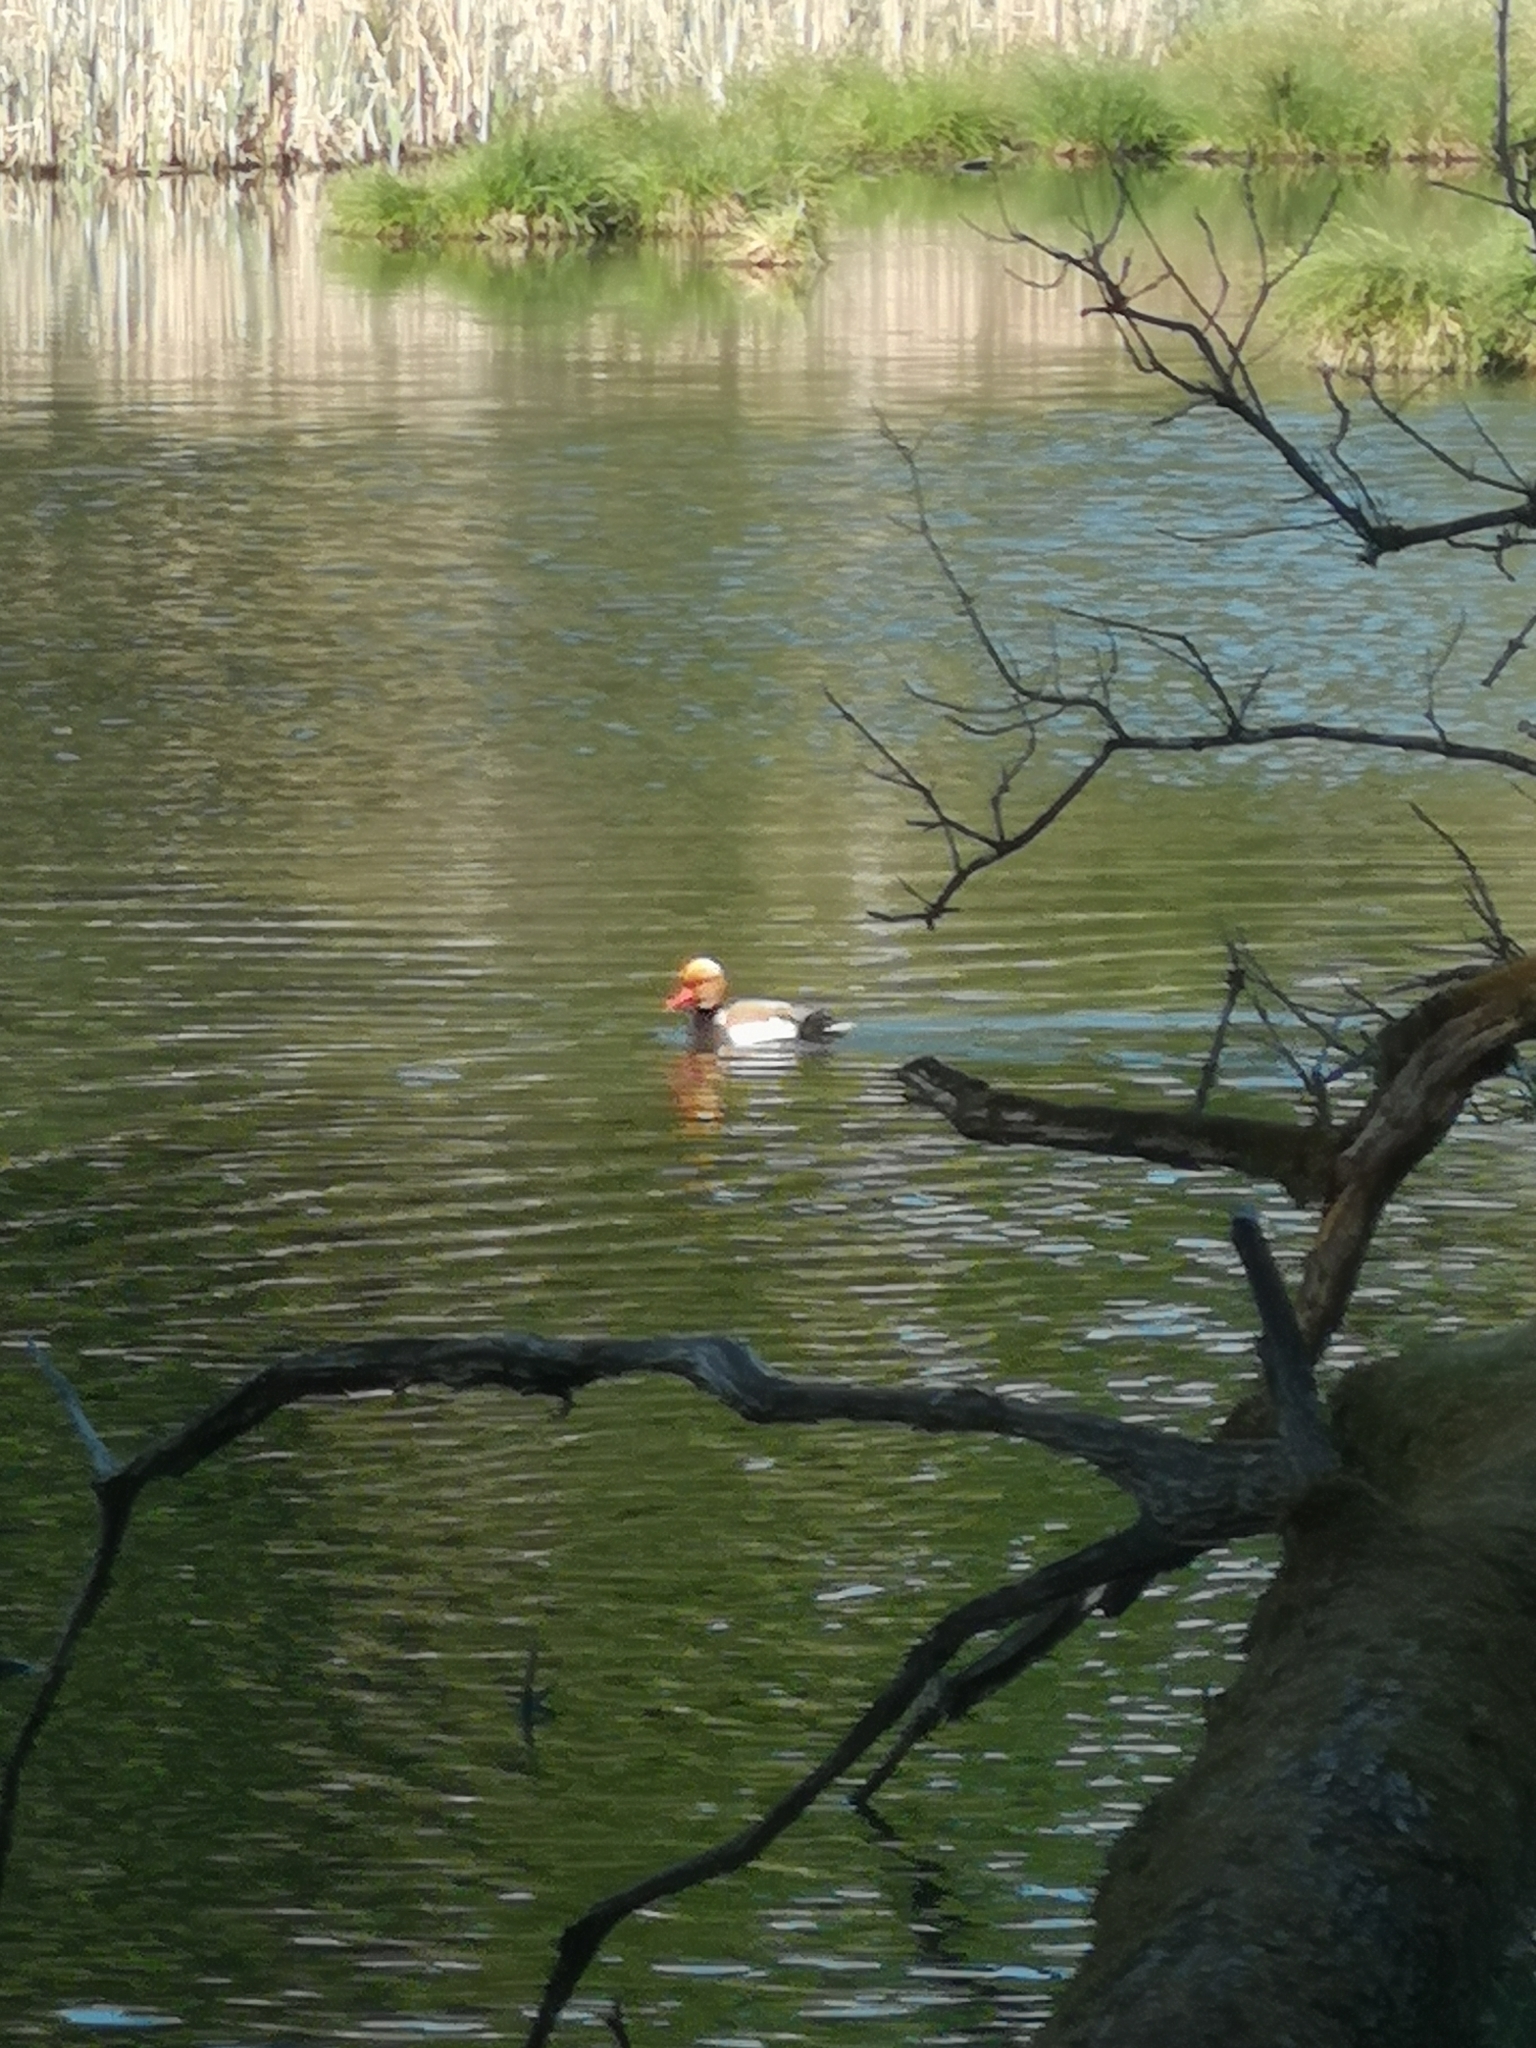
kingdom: Animalia
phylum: Chordata
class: Aves
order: Anseriformes
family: Anatidae
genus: Netta
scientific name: Netta rufina
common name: Red-crested pochard
